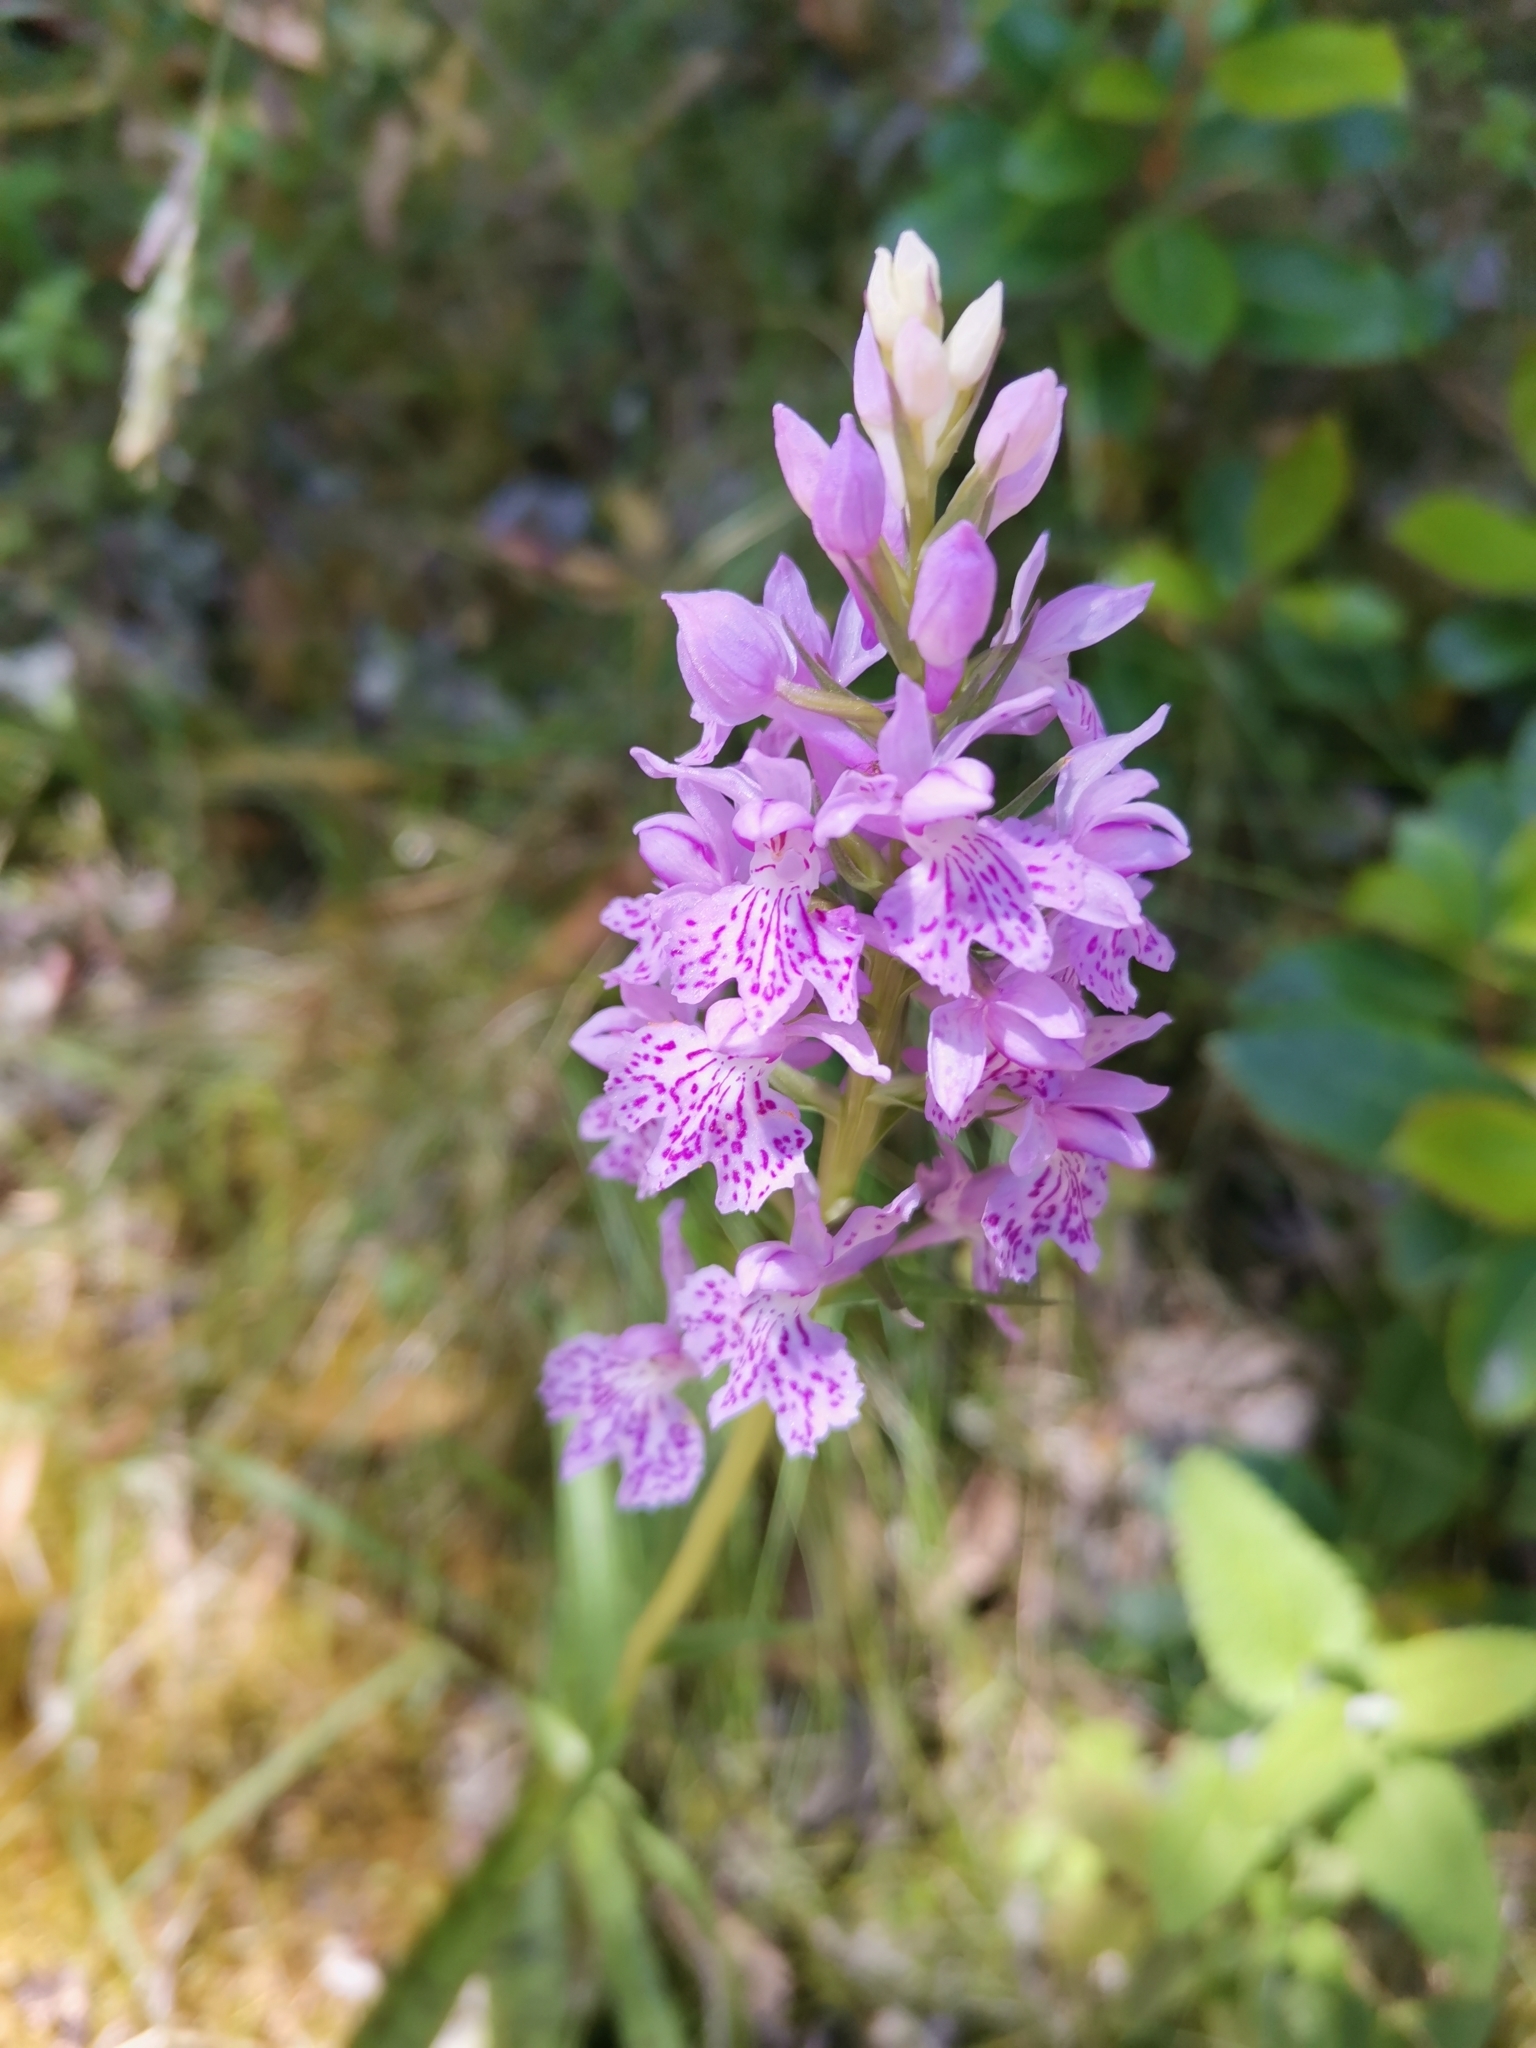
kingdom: Plantae
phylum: Tracheophyta
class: Liliopsida
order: Asparagales
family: Orchidaceae
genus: Dactylorhiza
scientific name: Dactylorhiza maculata
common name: Heath spotted-orchid
